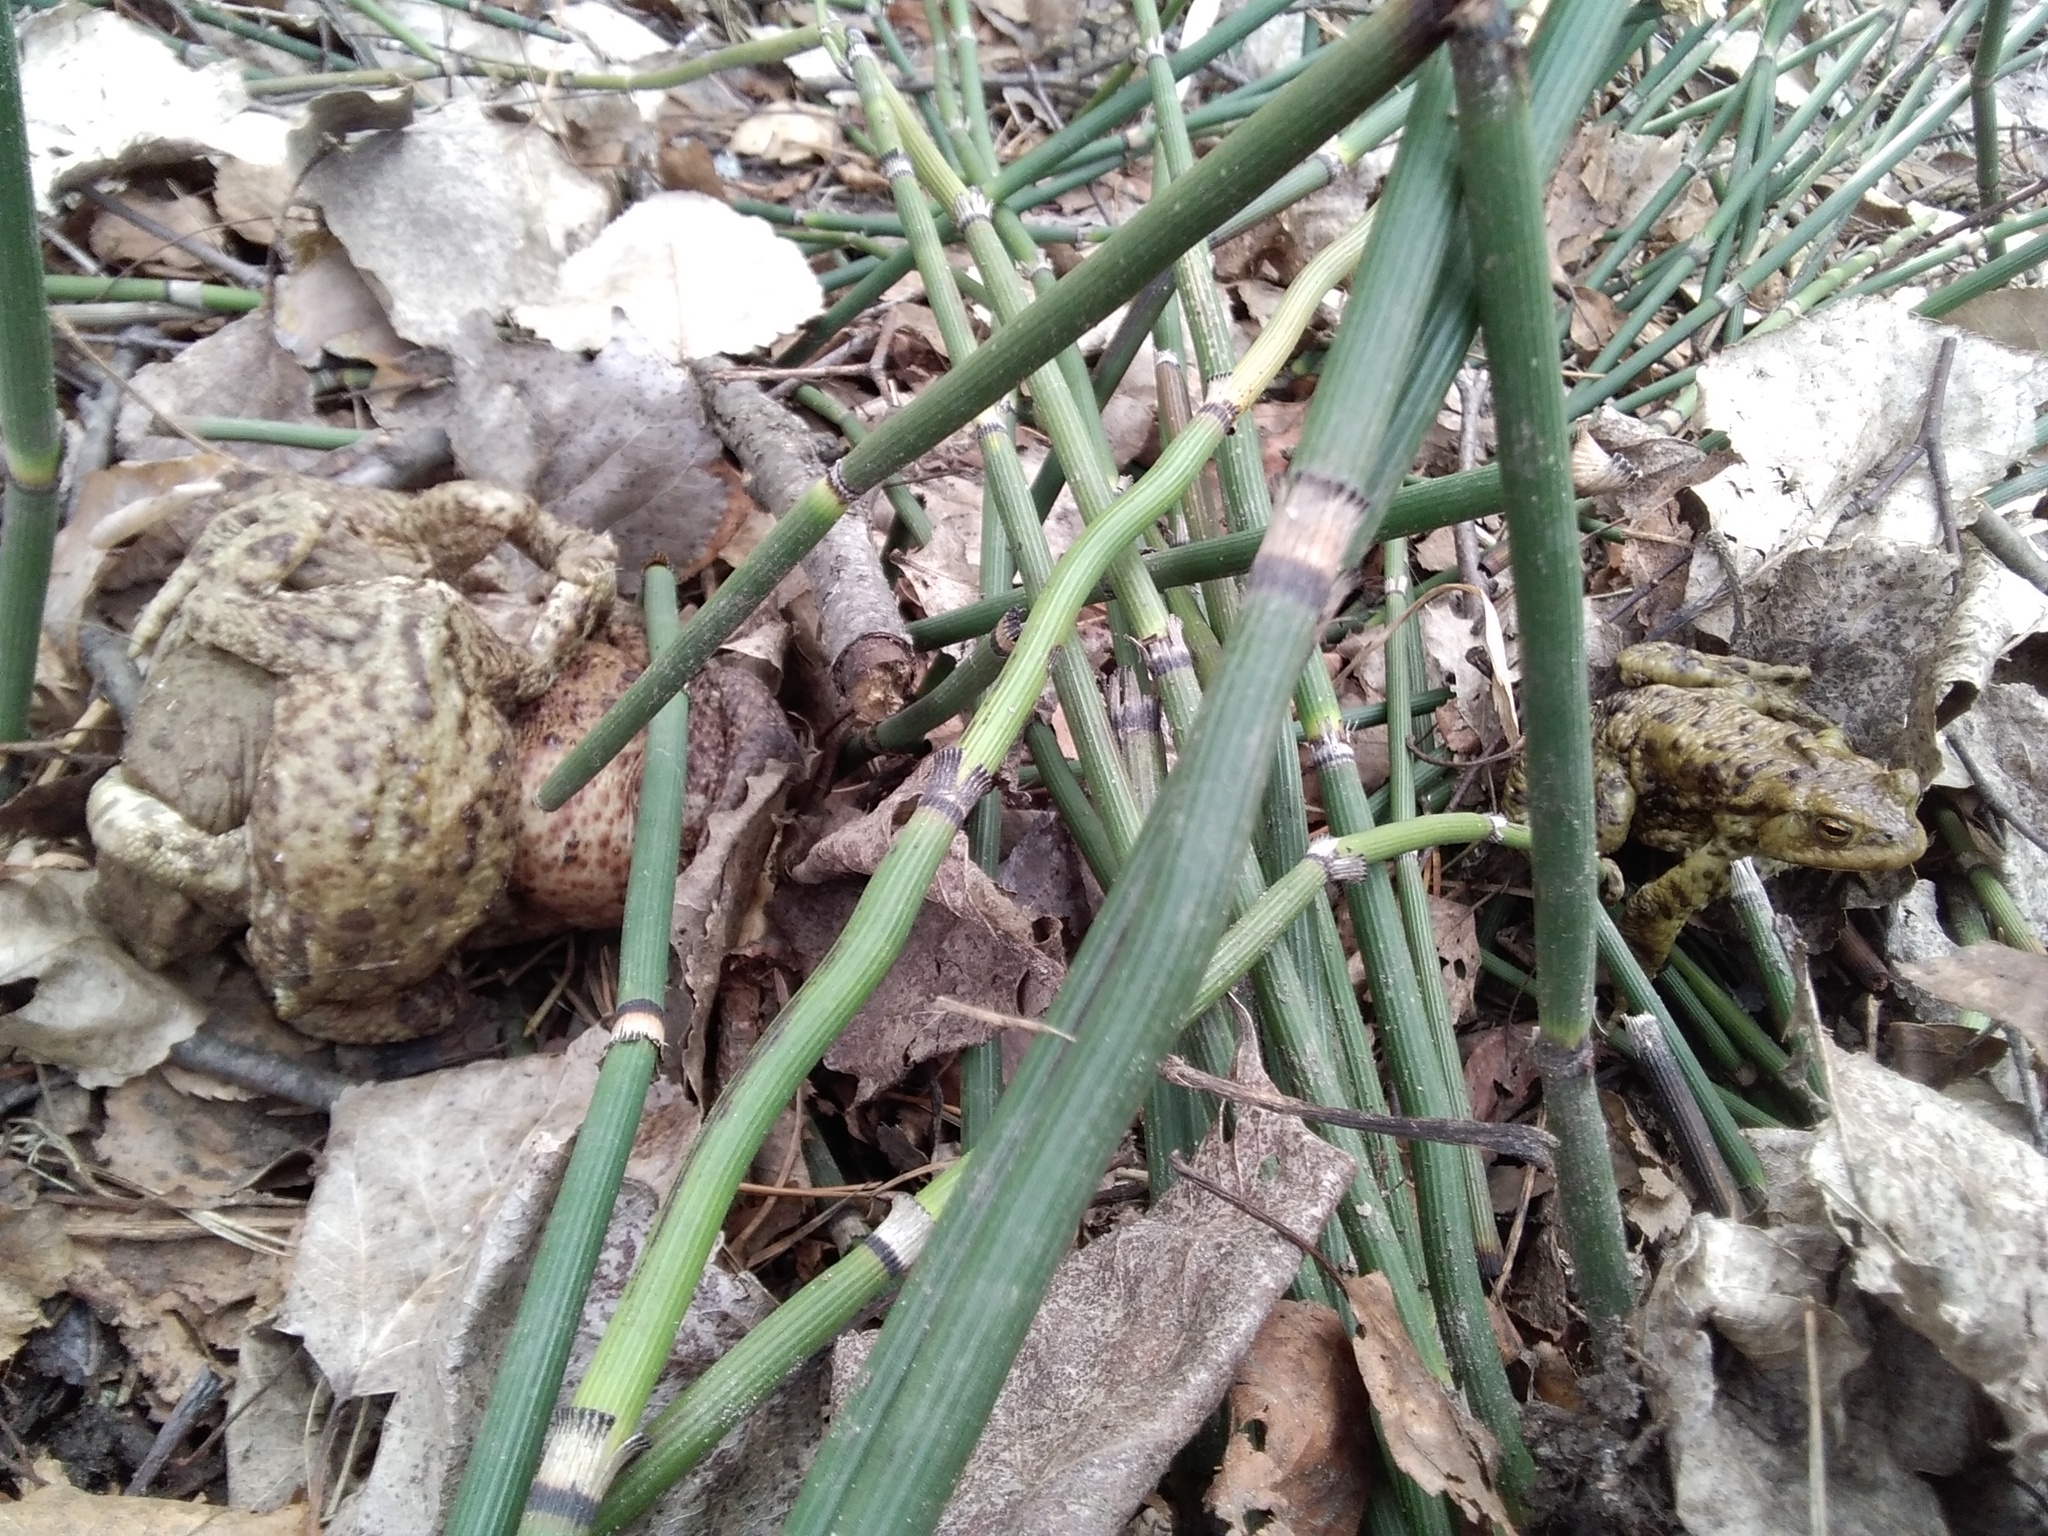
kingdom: Animalia
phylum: Chordata
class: Amphibia
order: Anura
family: Bufonidae
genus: Bufo
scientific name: Bufo bufo
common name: Common toad
